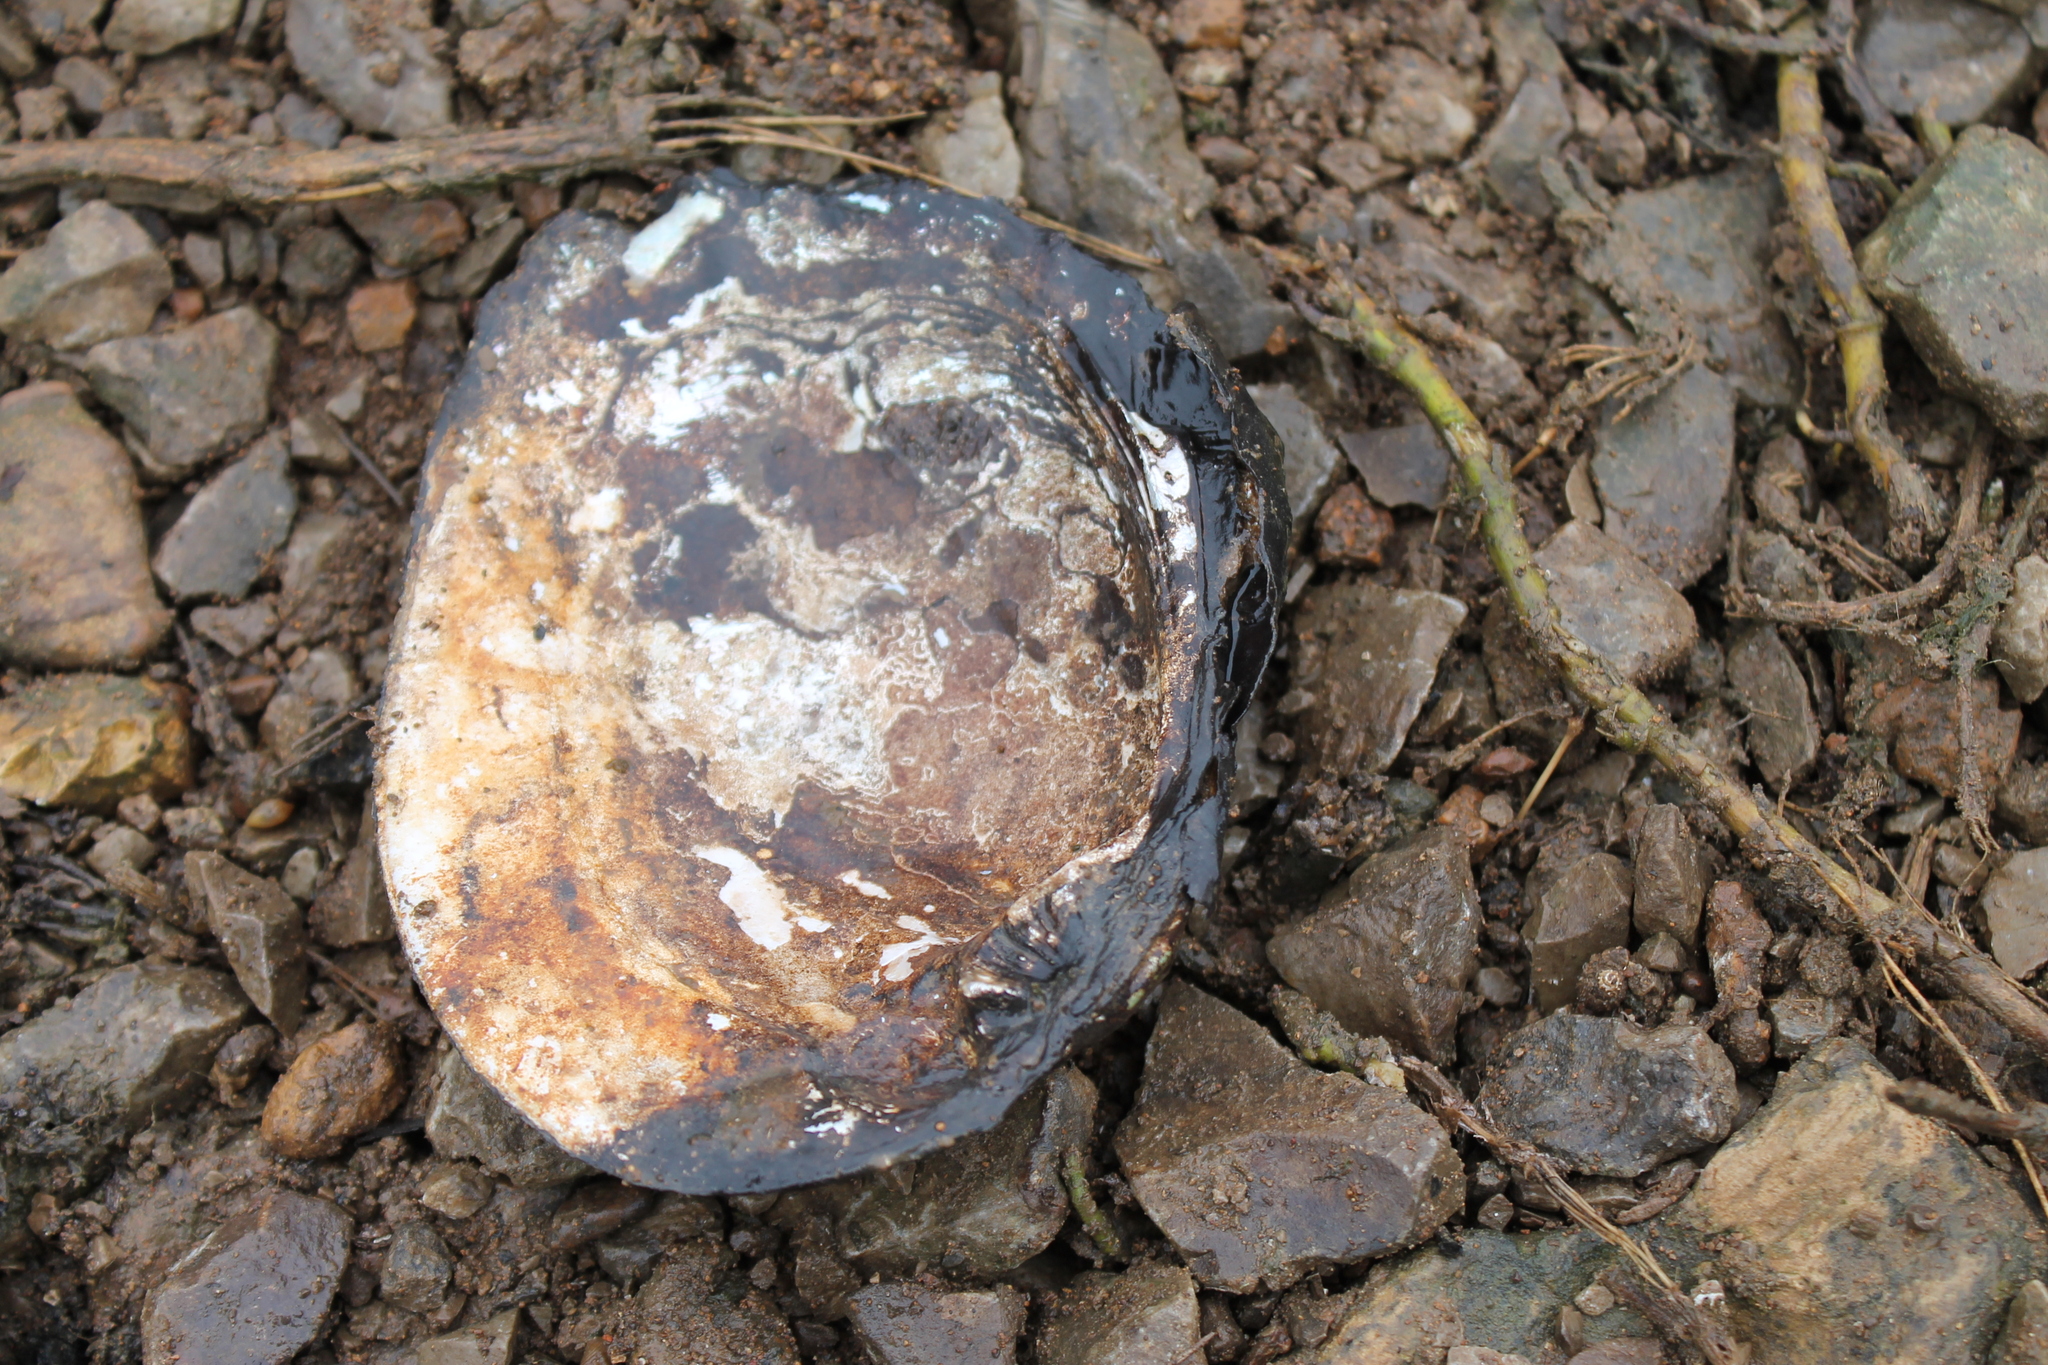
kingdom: Animalia
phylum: Mollusca
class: Bivalvia
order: Unionida
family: Unionidae
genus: Megalonaias
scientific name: Megalonaias nervosa
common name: Washboard
